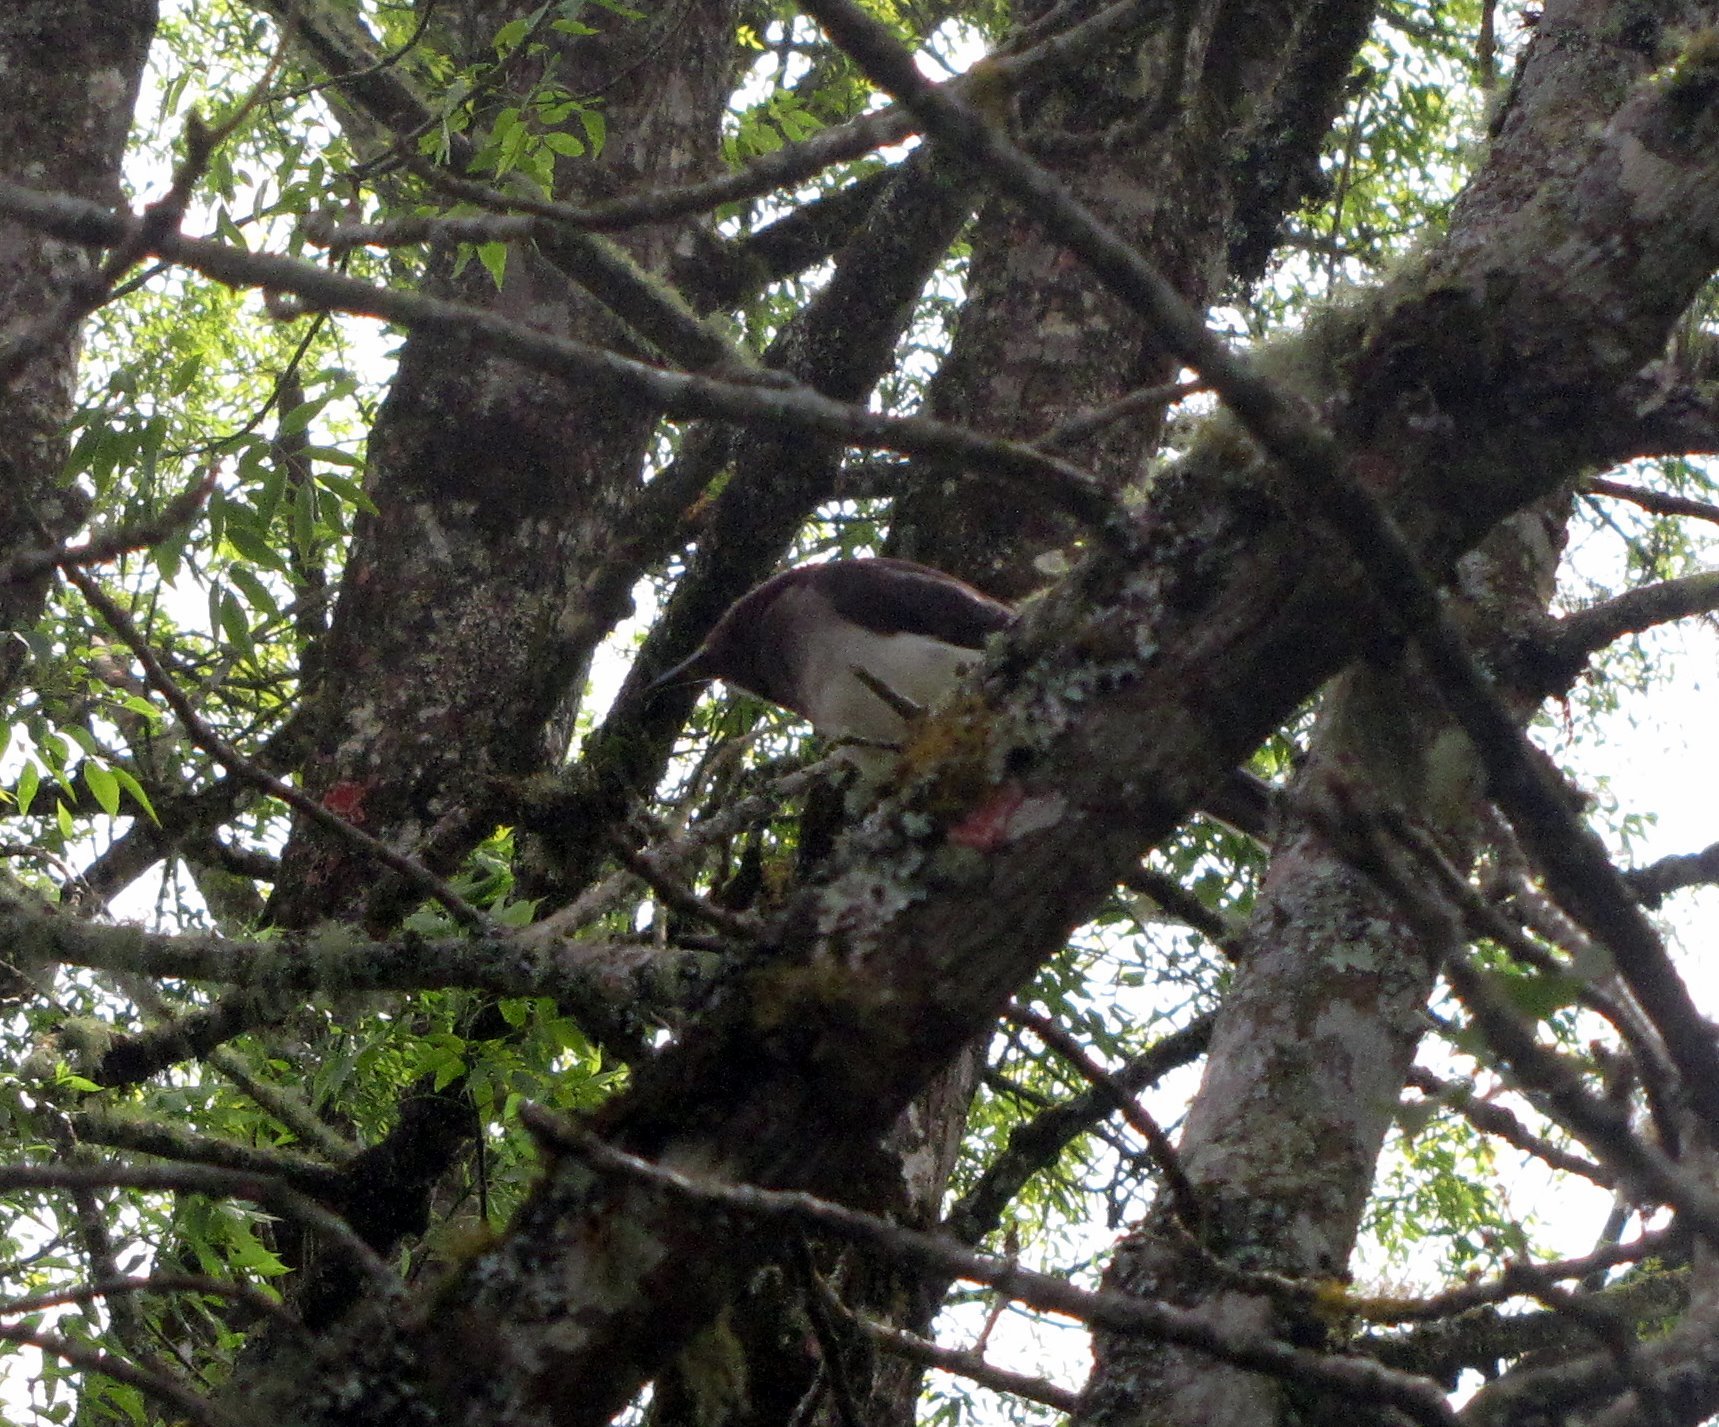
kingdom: Animalia
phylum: Chordata
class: Aves
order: Passeriformes
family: Corvidae
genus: Psilorhinus
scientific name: Psilorhinus morio
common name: Brown jay
